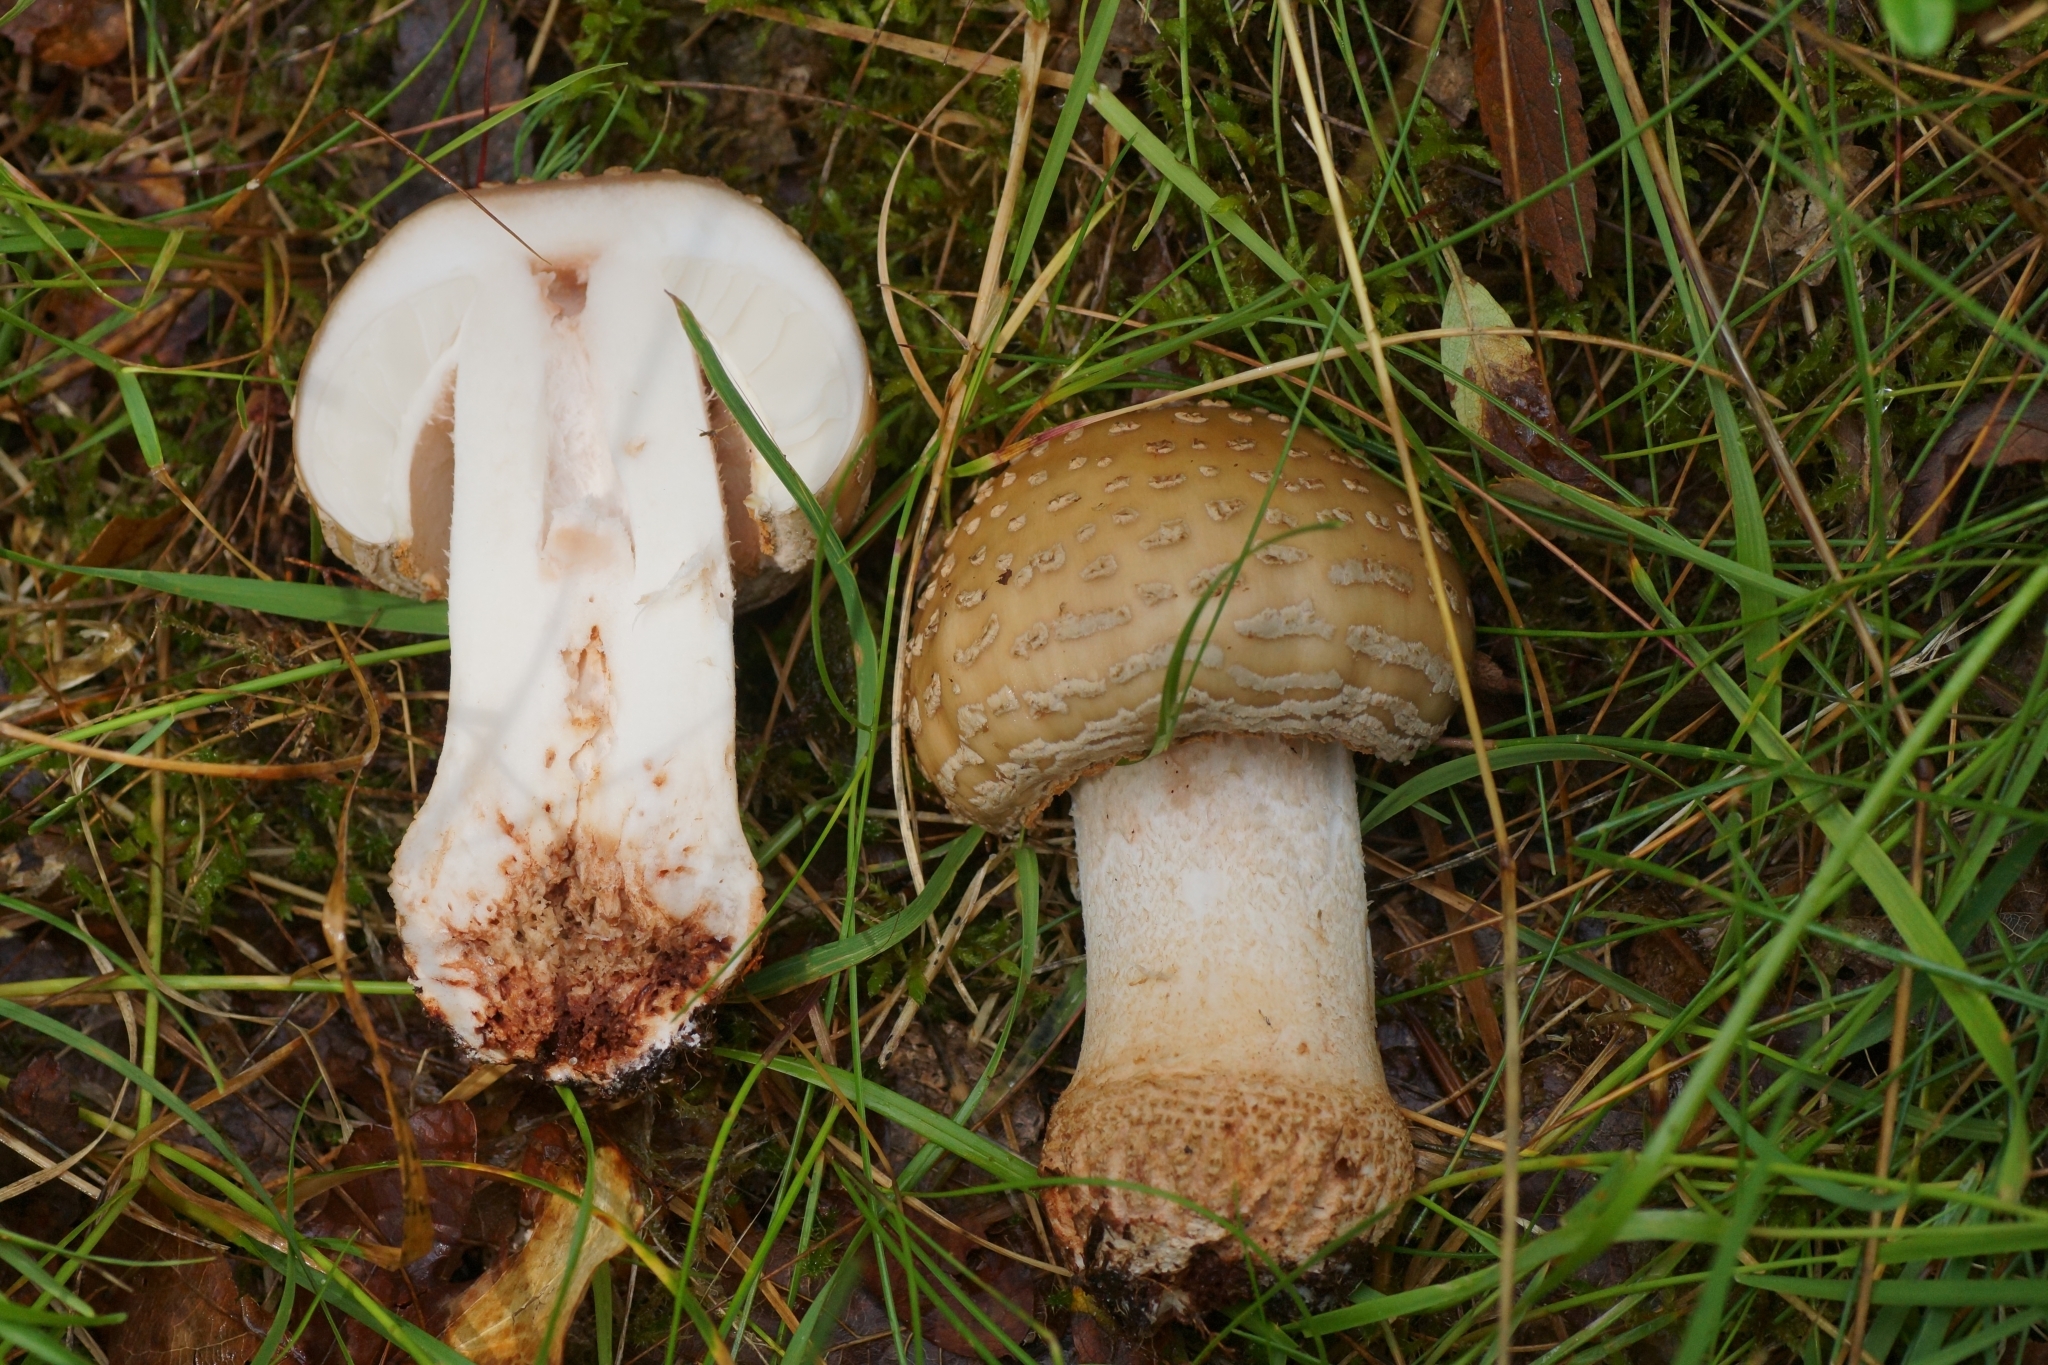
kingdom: Fungi
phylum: Basidiomycota
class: Agaricomycetes
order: Agaricales
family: Amanitaceae
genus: Amanita
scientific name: Amanita rubescens
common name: Blusher
